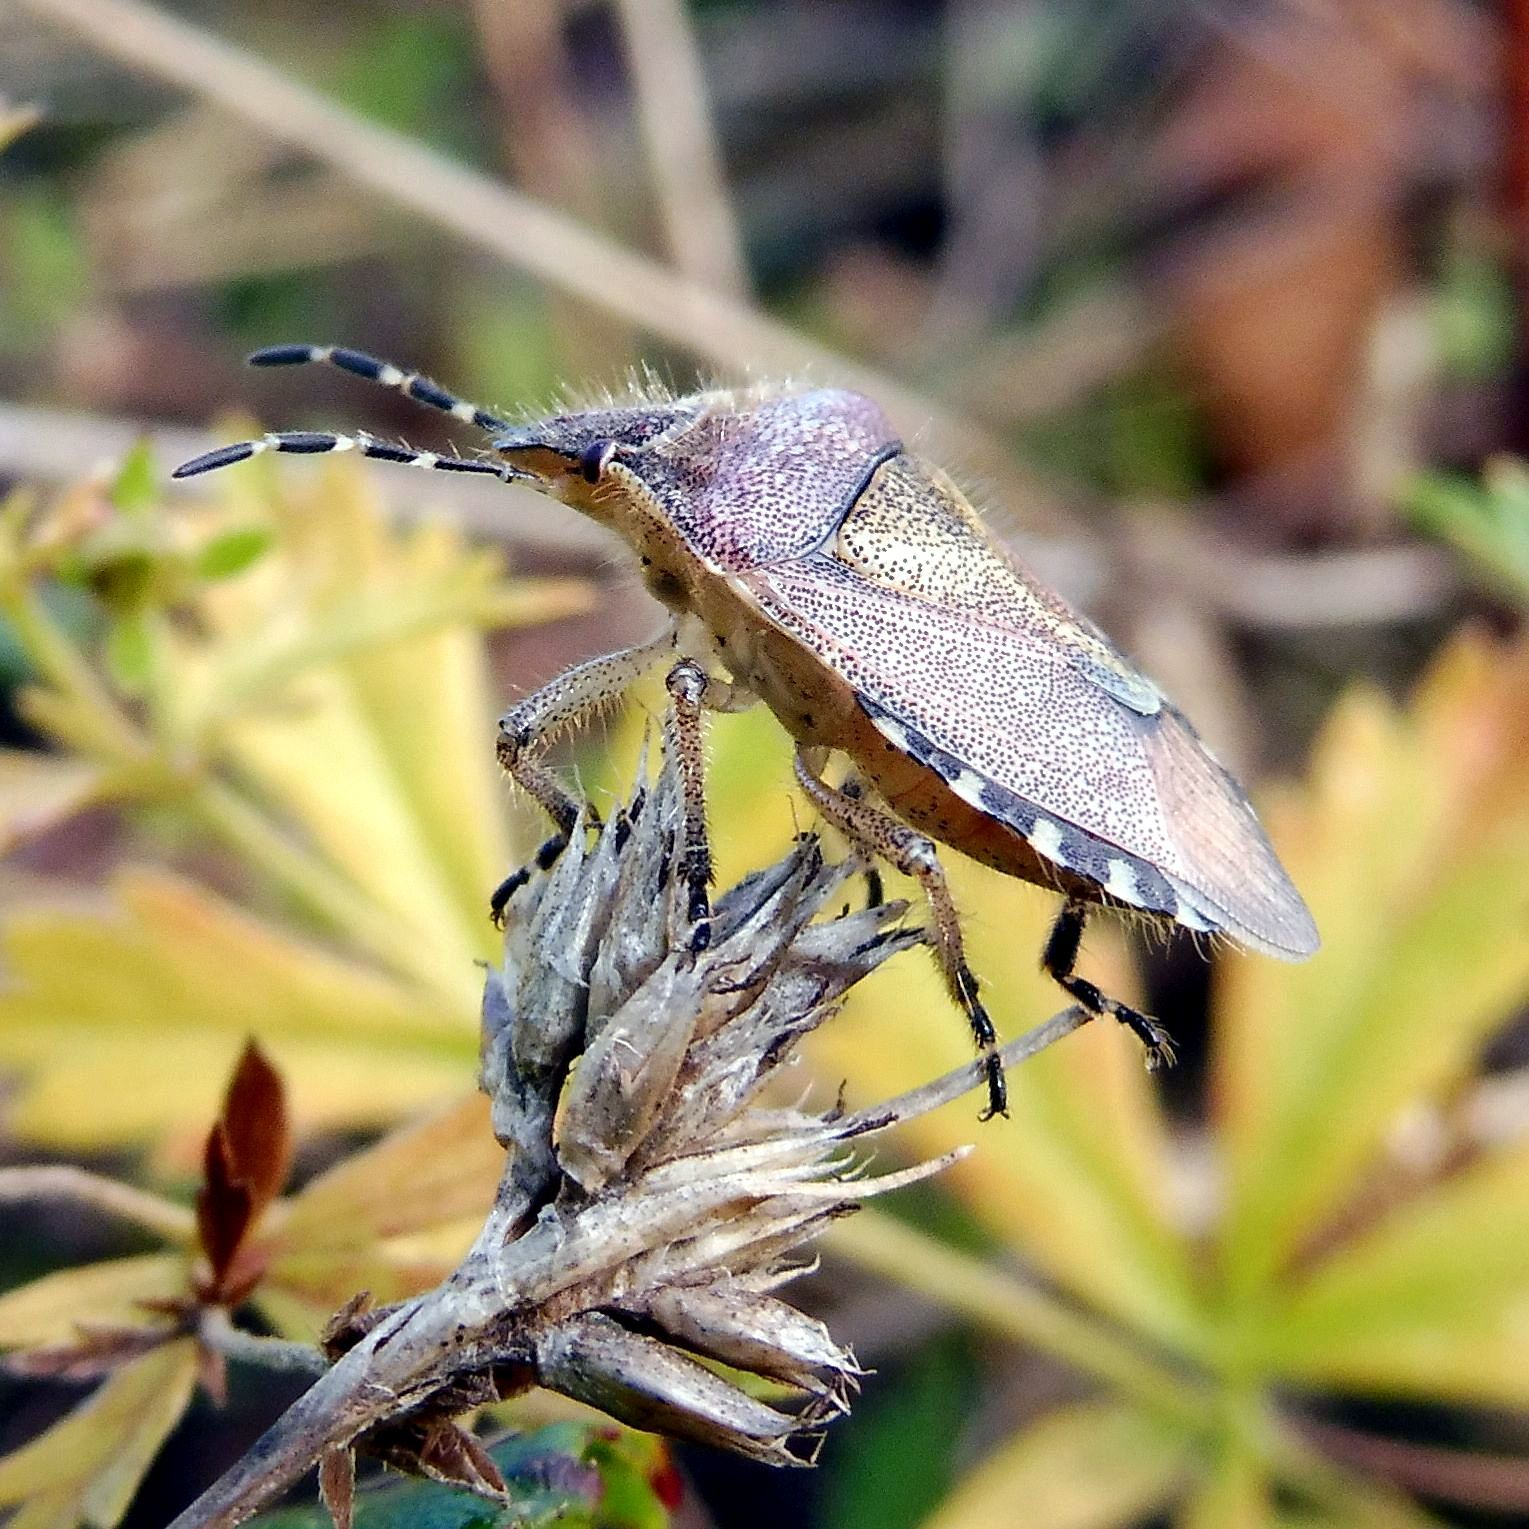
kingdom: Animalia
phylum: Arthropoda
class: Insecta
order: Hemiptera
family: Pentatomidae
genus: Dolycoris
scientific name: Dolycoris baccarum
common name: Sloe bug
